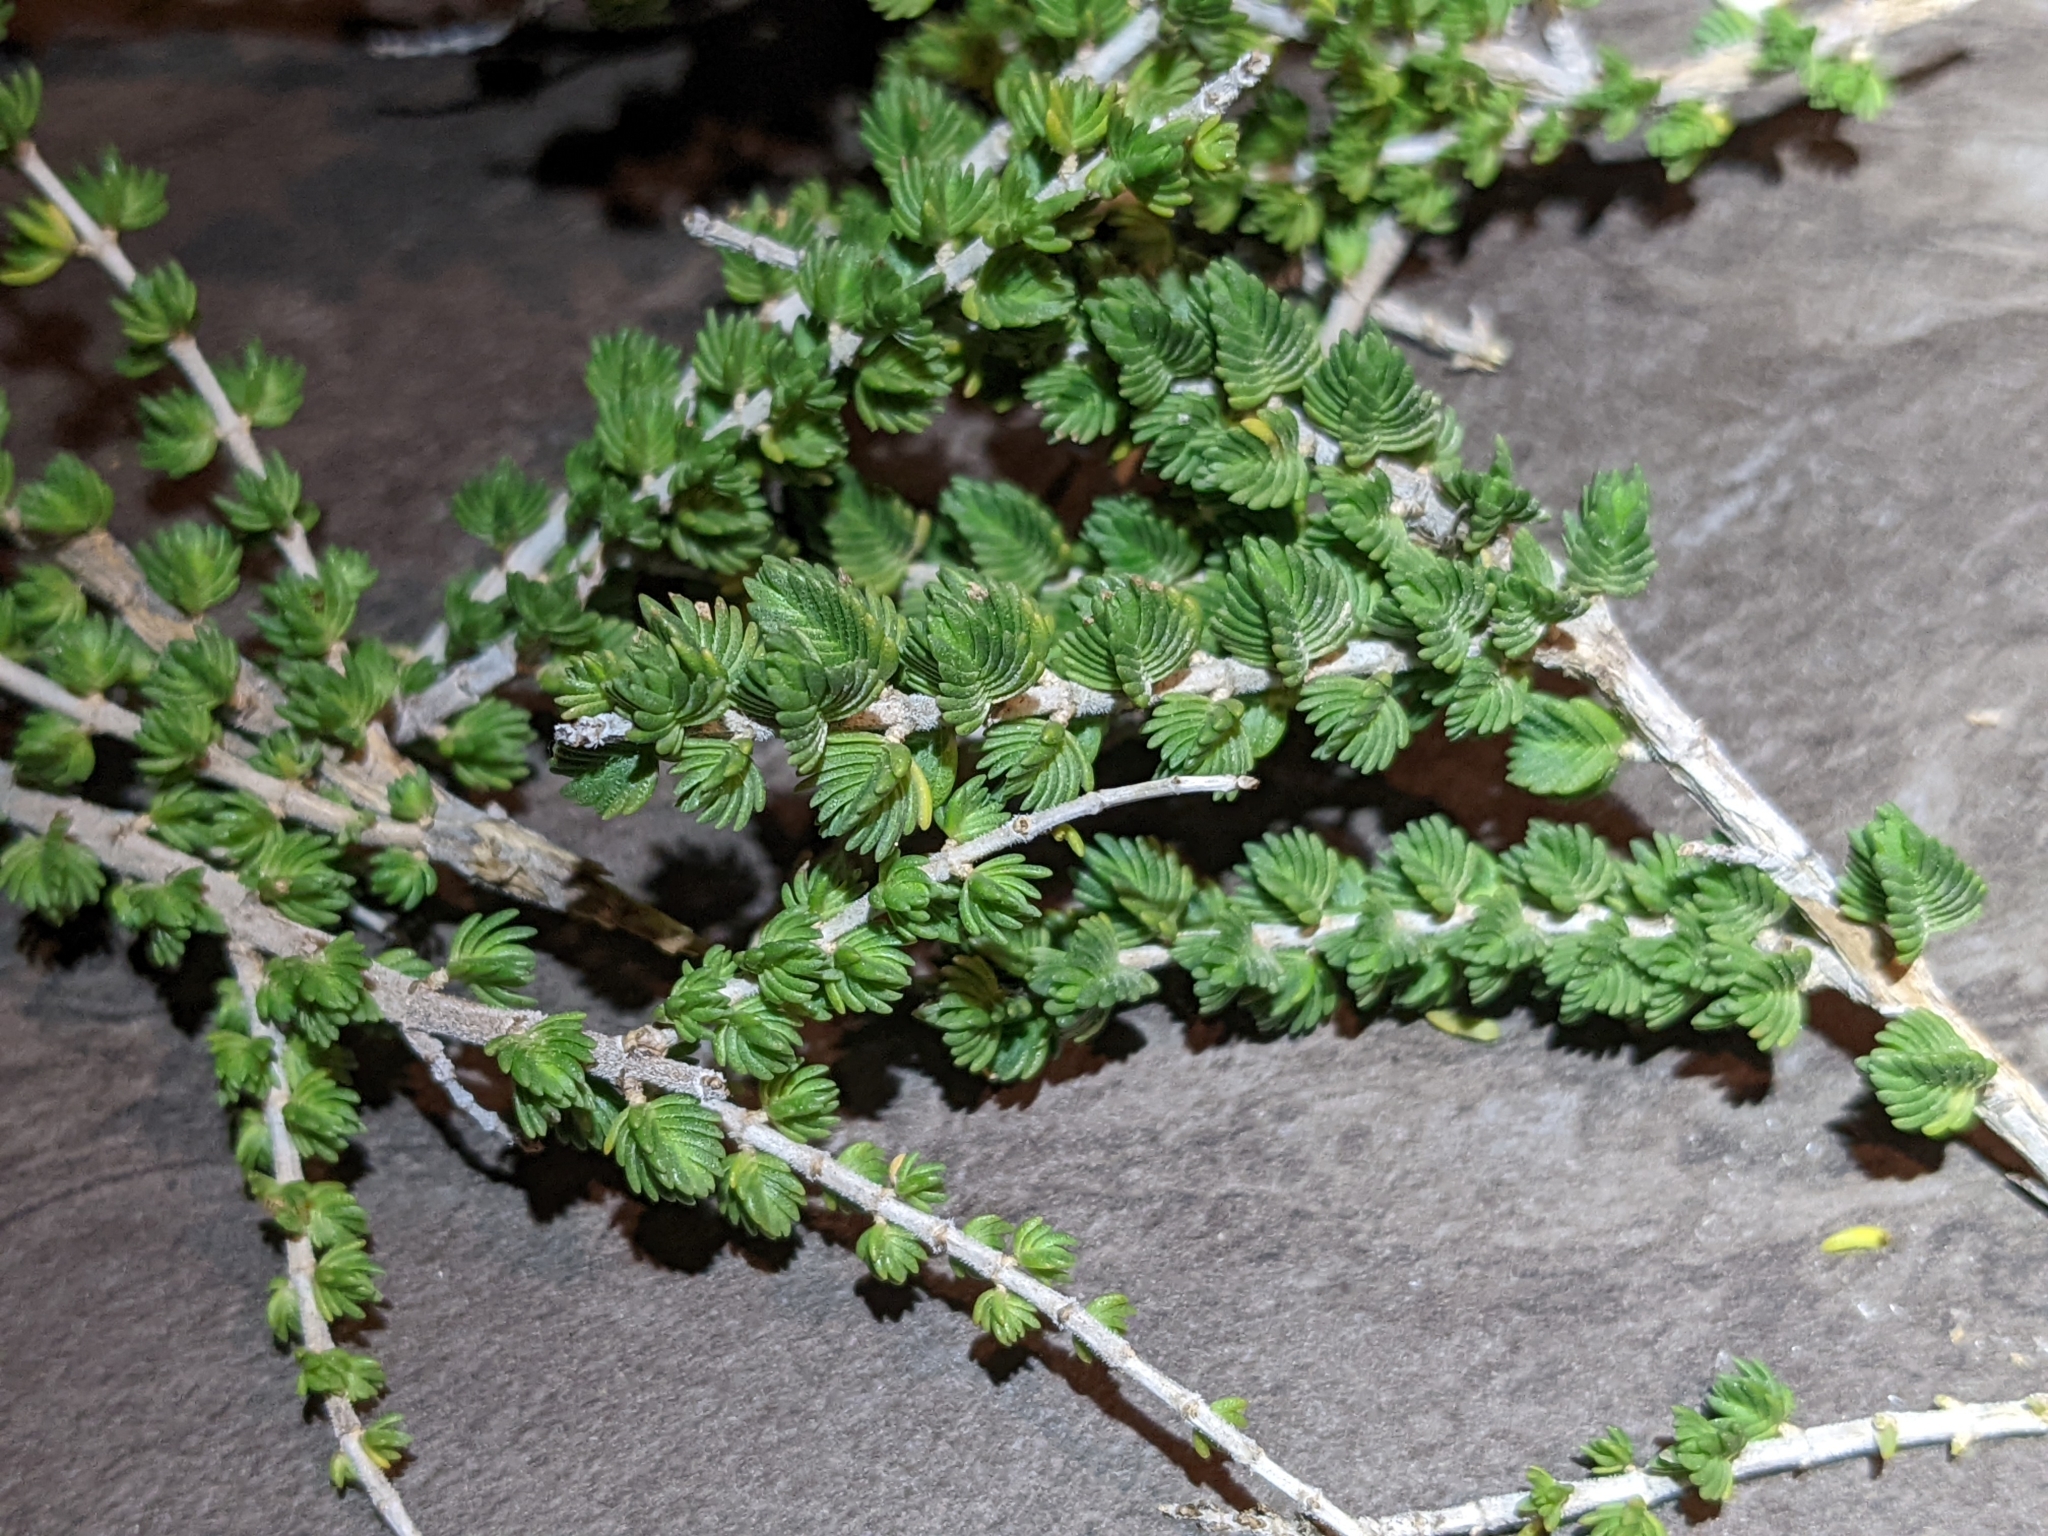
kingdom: Plantae
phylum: Tracheophyta
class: Magnoliopsida
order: Lamiales
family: Lamiaceae
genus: Thymbra
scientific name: Thymbra capitata
